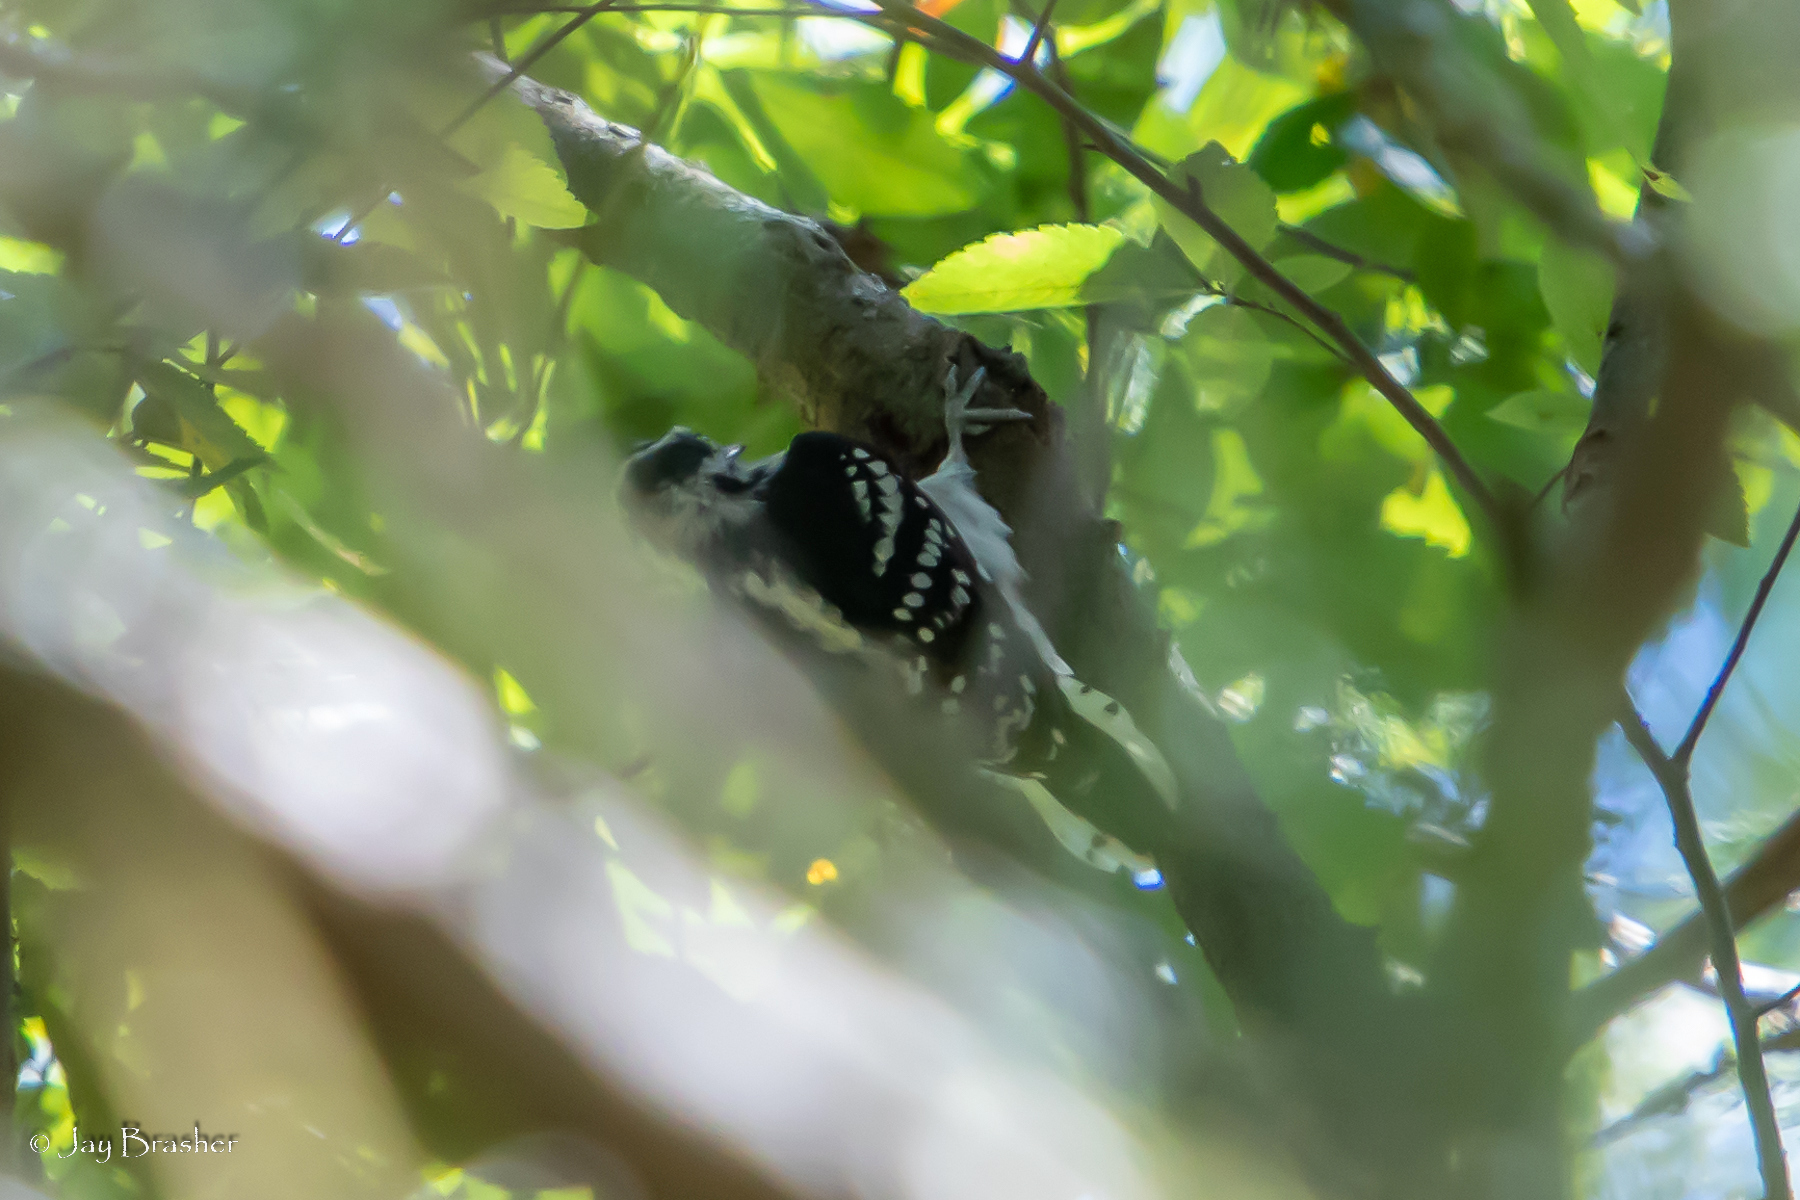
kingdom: Animalia
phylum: Chordata
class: Aves
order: Piciformes
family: Picidae
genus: Dryobates
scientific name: Dryobates pubescens
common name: Downy woodpecker
